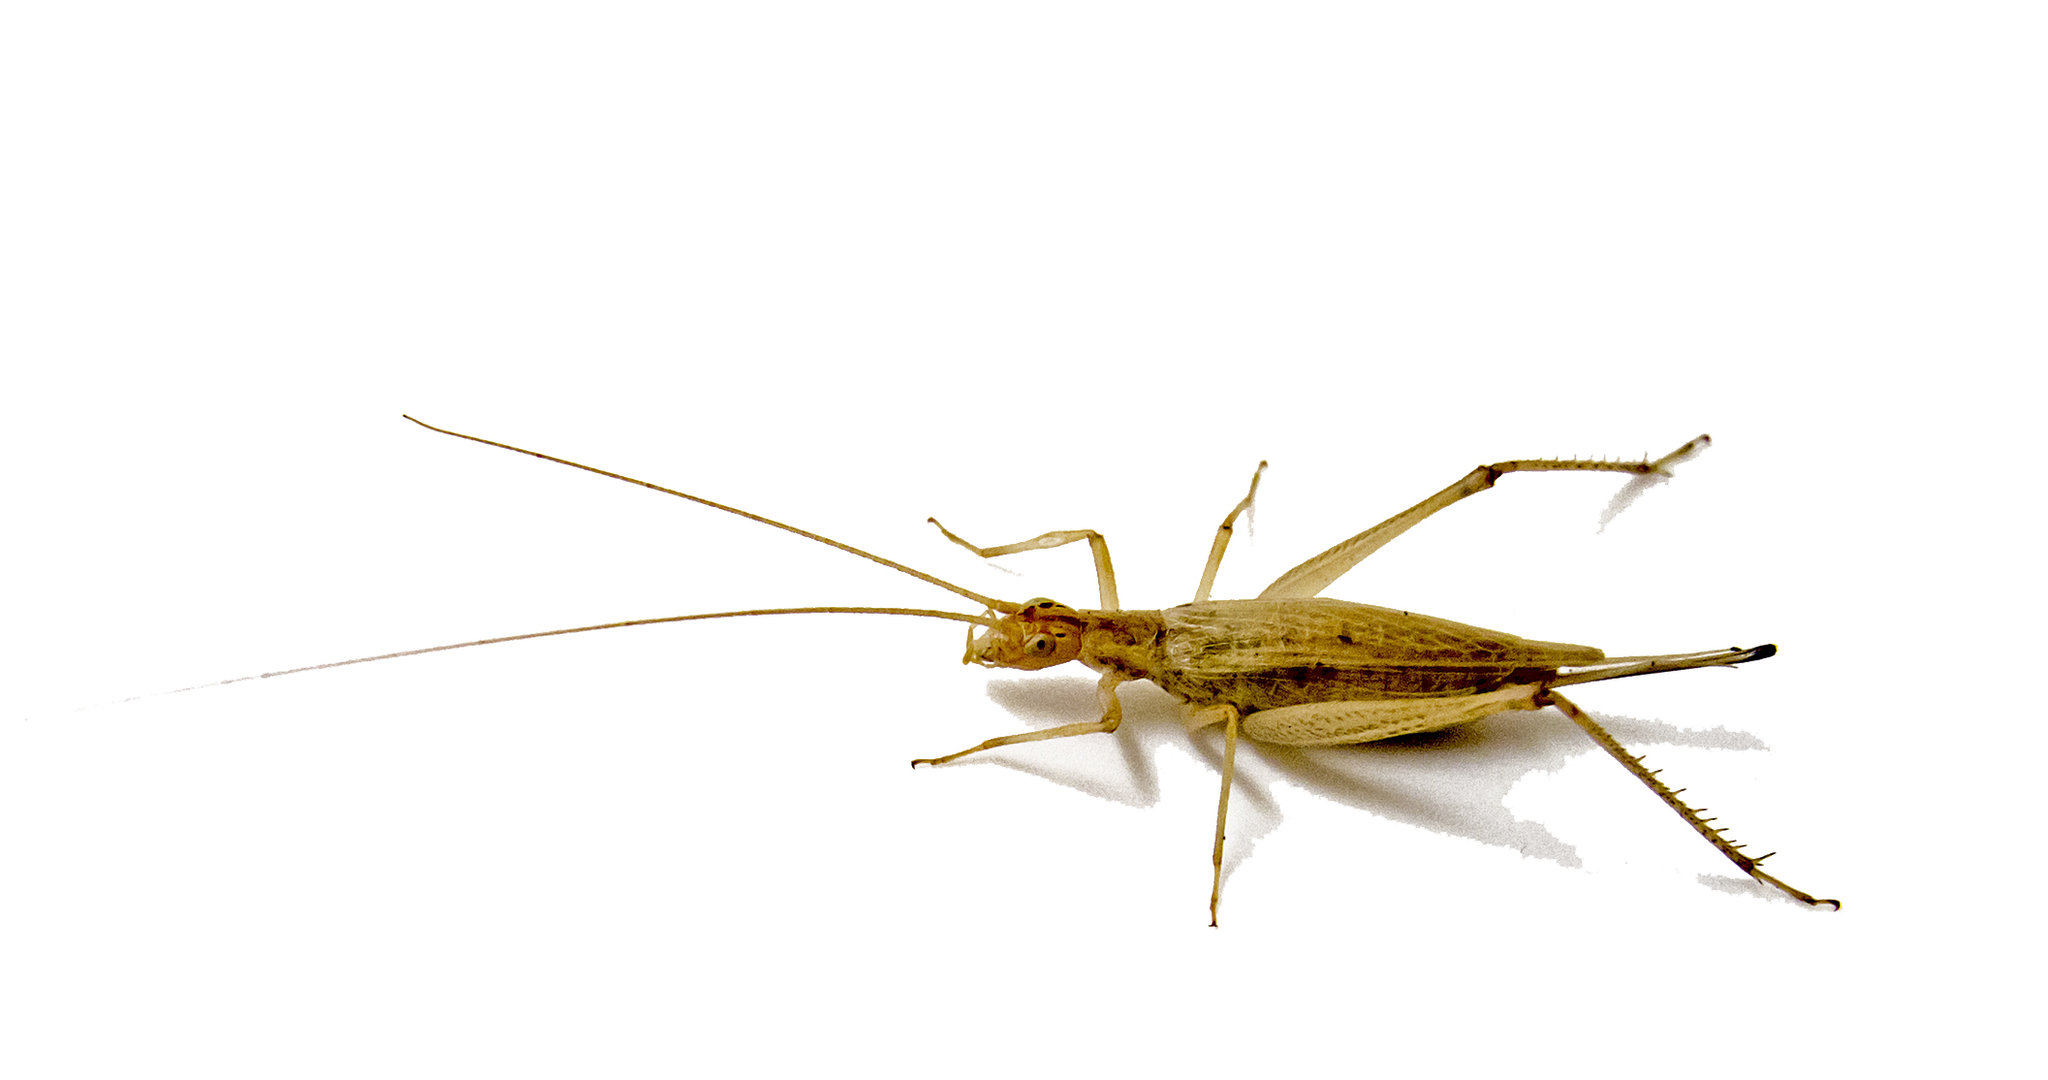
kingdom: Animalia
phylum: Arthropoda
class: Insecta
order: Orthoptera
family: Gryllidae
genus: Oecanthus
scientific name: Oecanthus pellucens
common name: Tree-cricket
